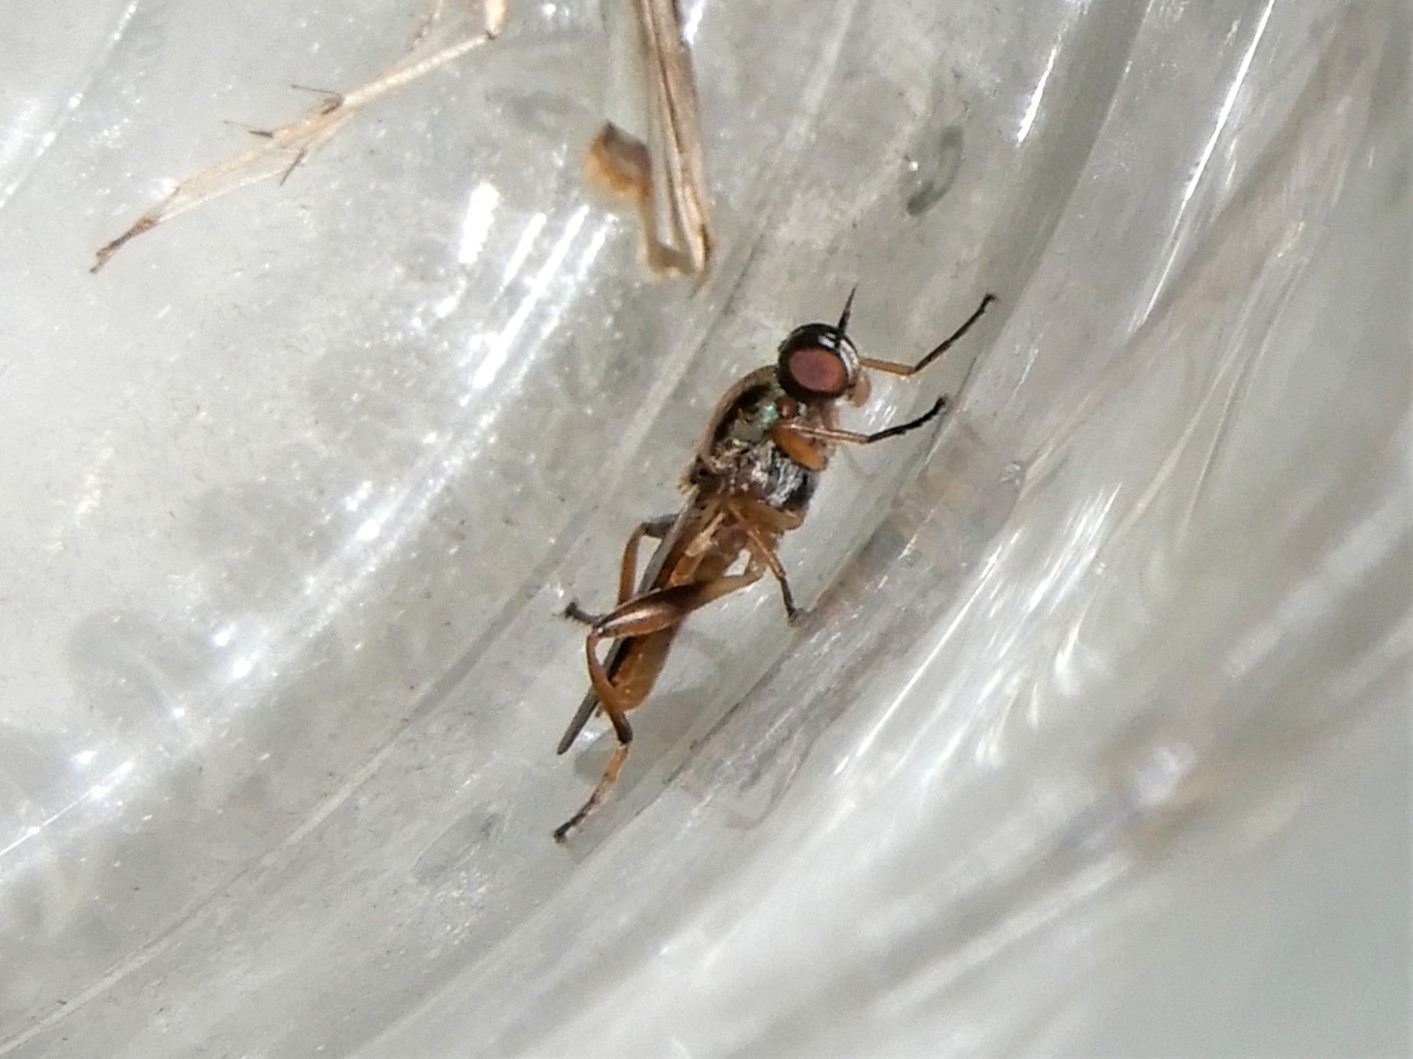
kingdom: Animalia
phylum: Arthropoda
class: Insecta
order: Diptera
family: Stratiomyidae
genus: Neactina
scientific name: Neactina opposita
